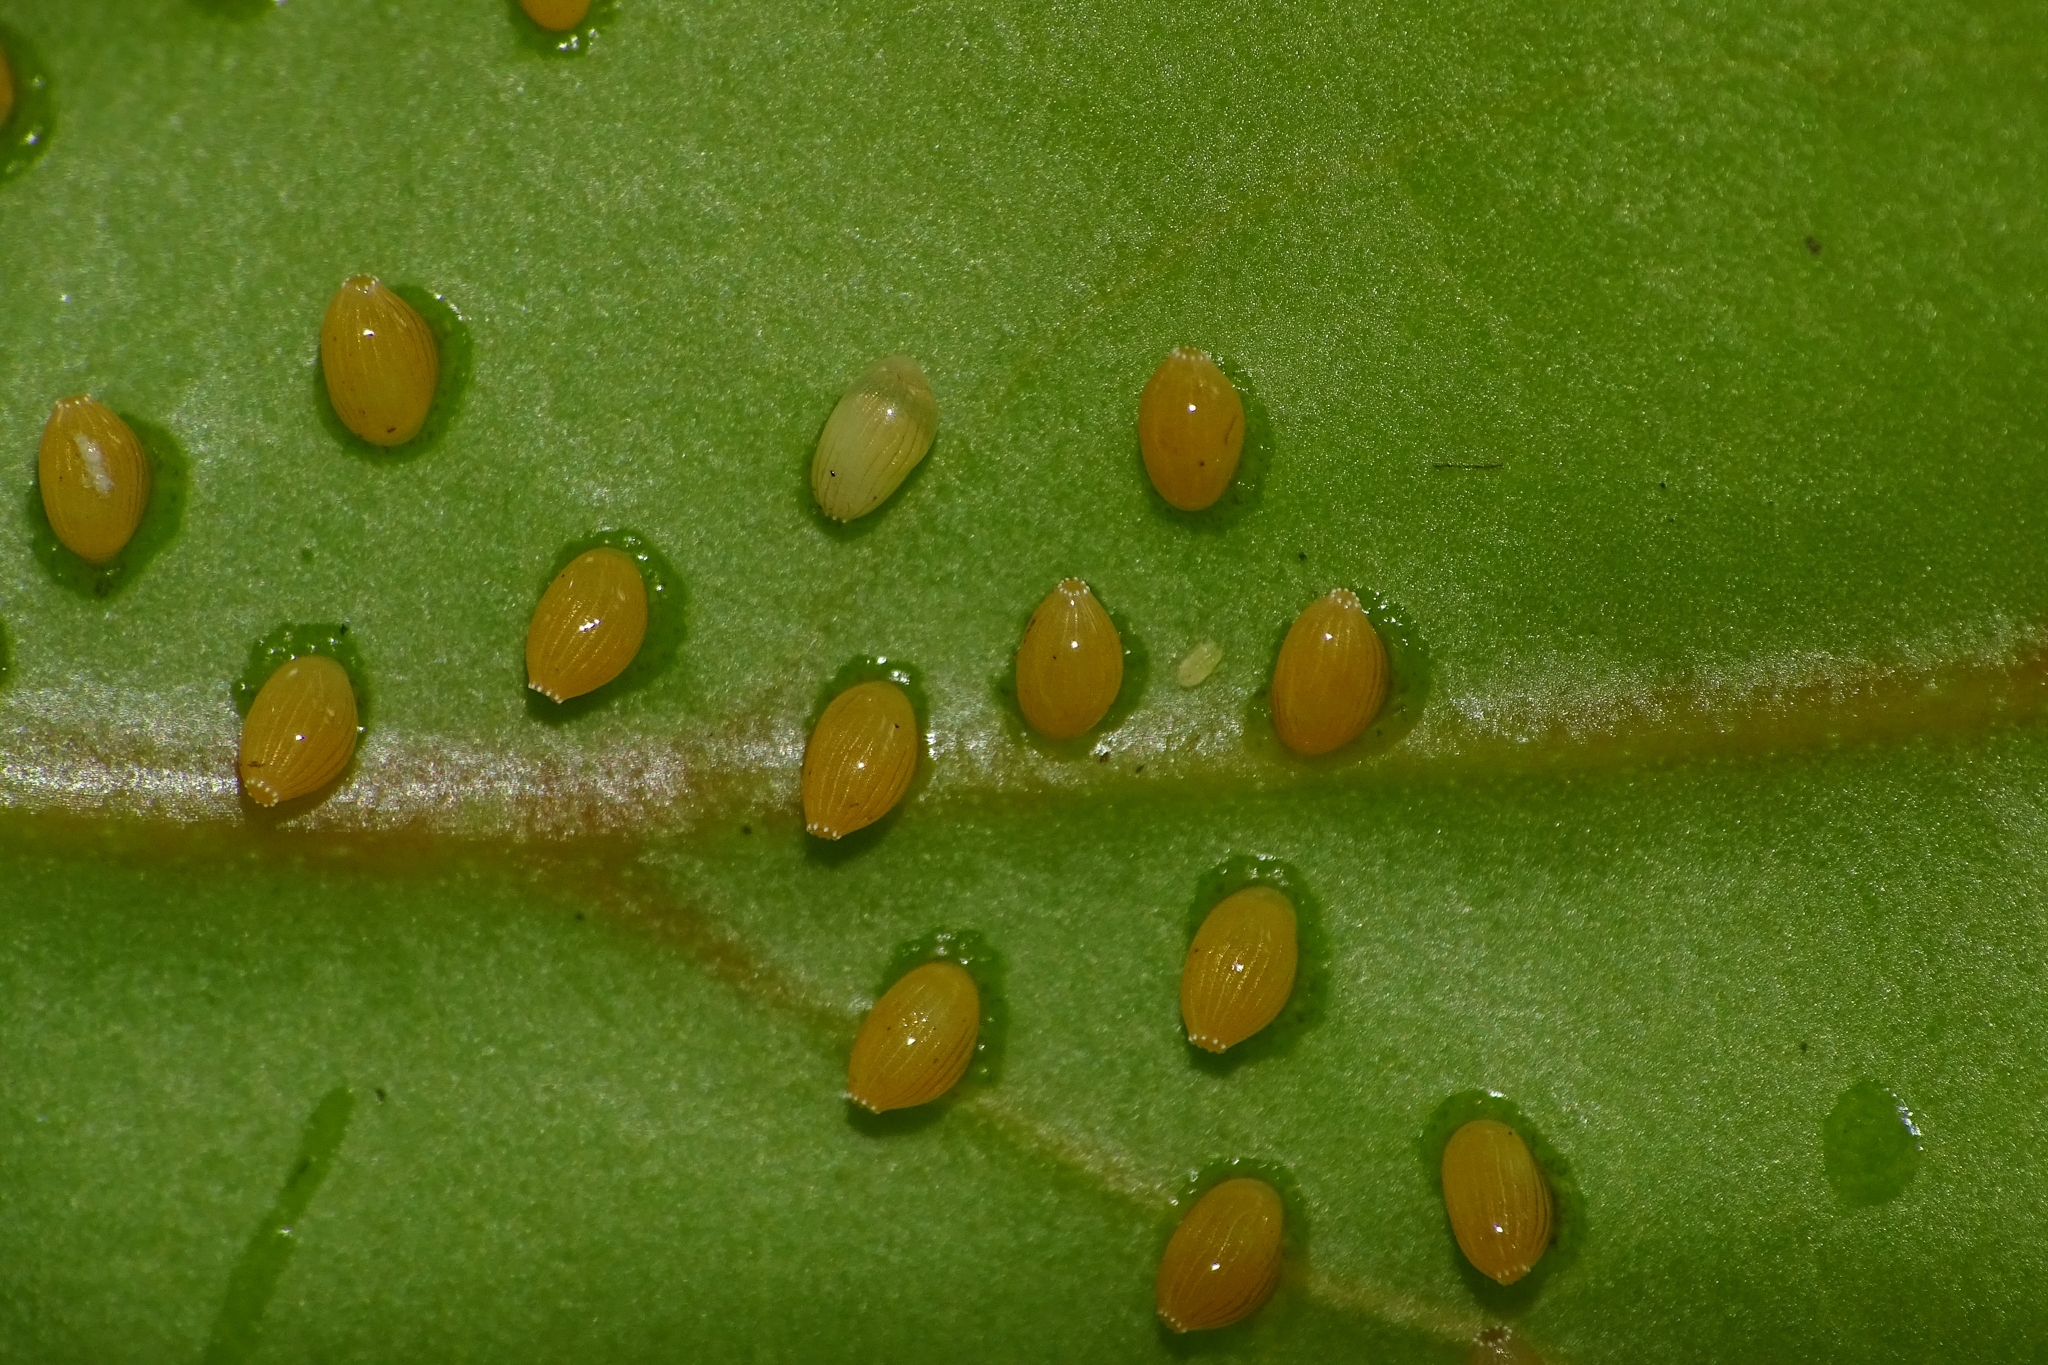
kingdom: Animalia
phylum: Arthropoda
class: Insecta
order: Lepidoptera
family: Pieridae
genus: Delias
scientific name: Delias eucharis
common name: Common jezebel
